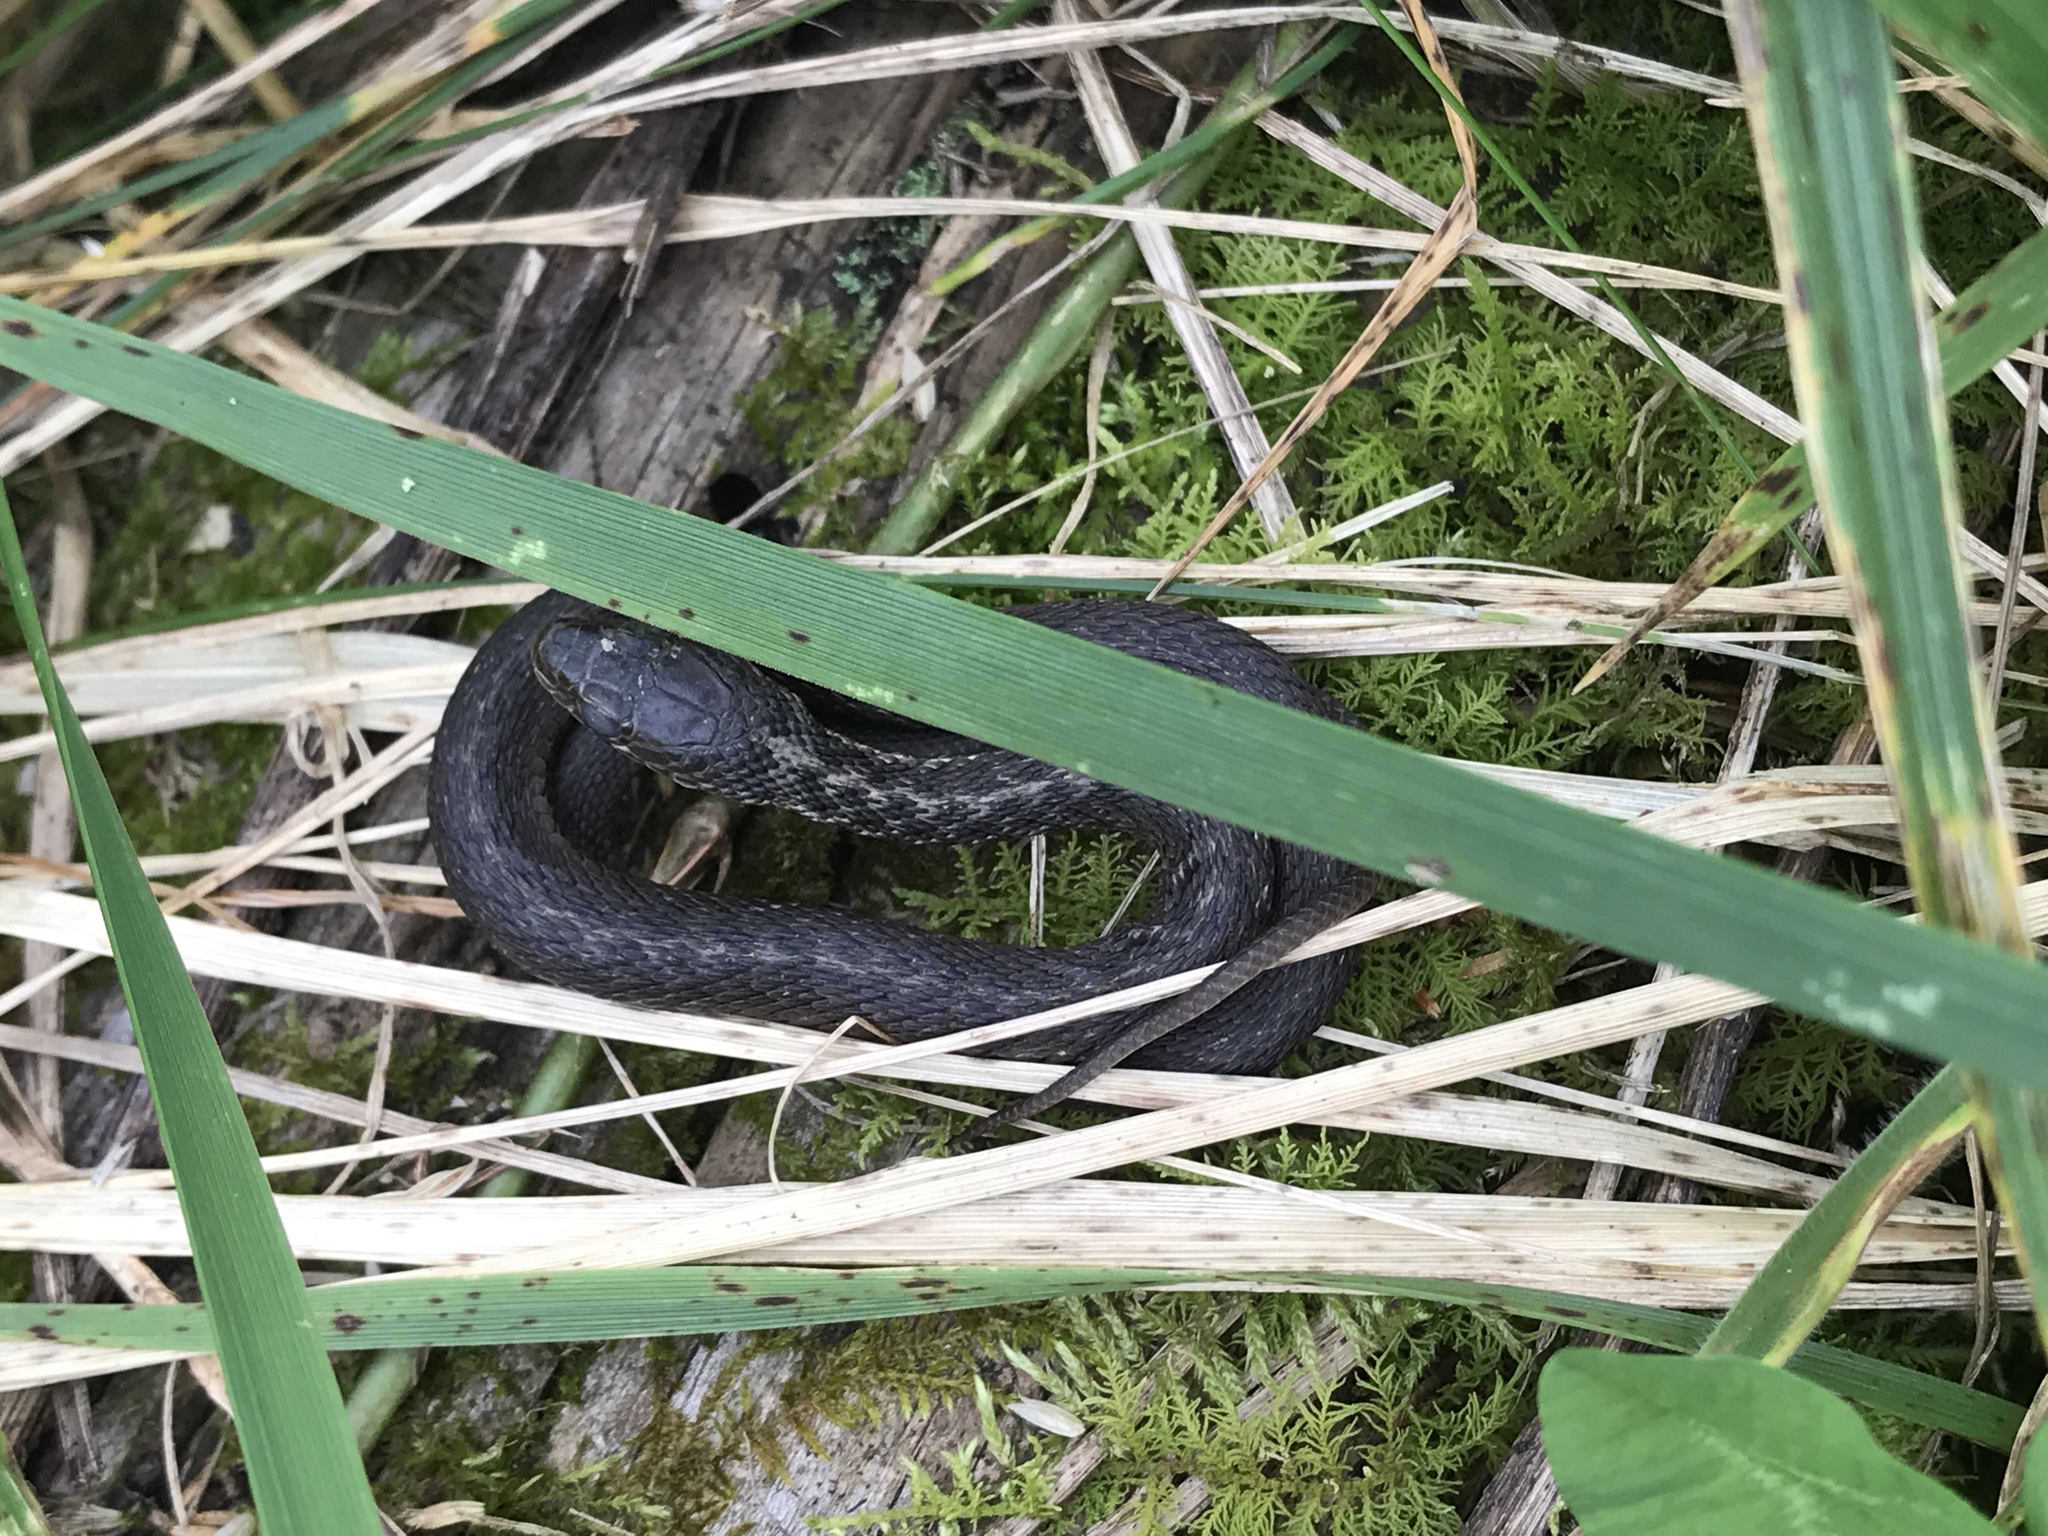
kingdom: Animalia
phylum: Chordata
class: Squamata
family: Colubridae
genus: Thamnophis
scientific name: Thamnophis sirtalis
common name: Common garter snake
